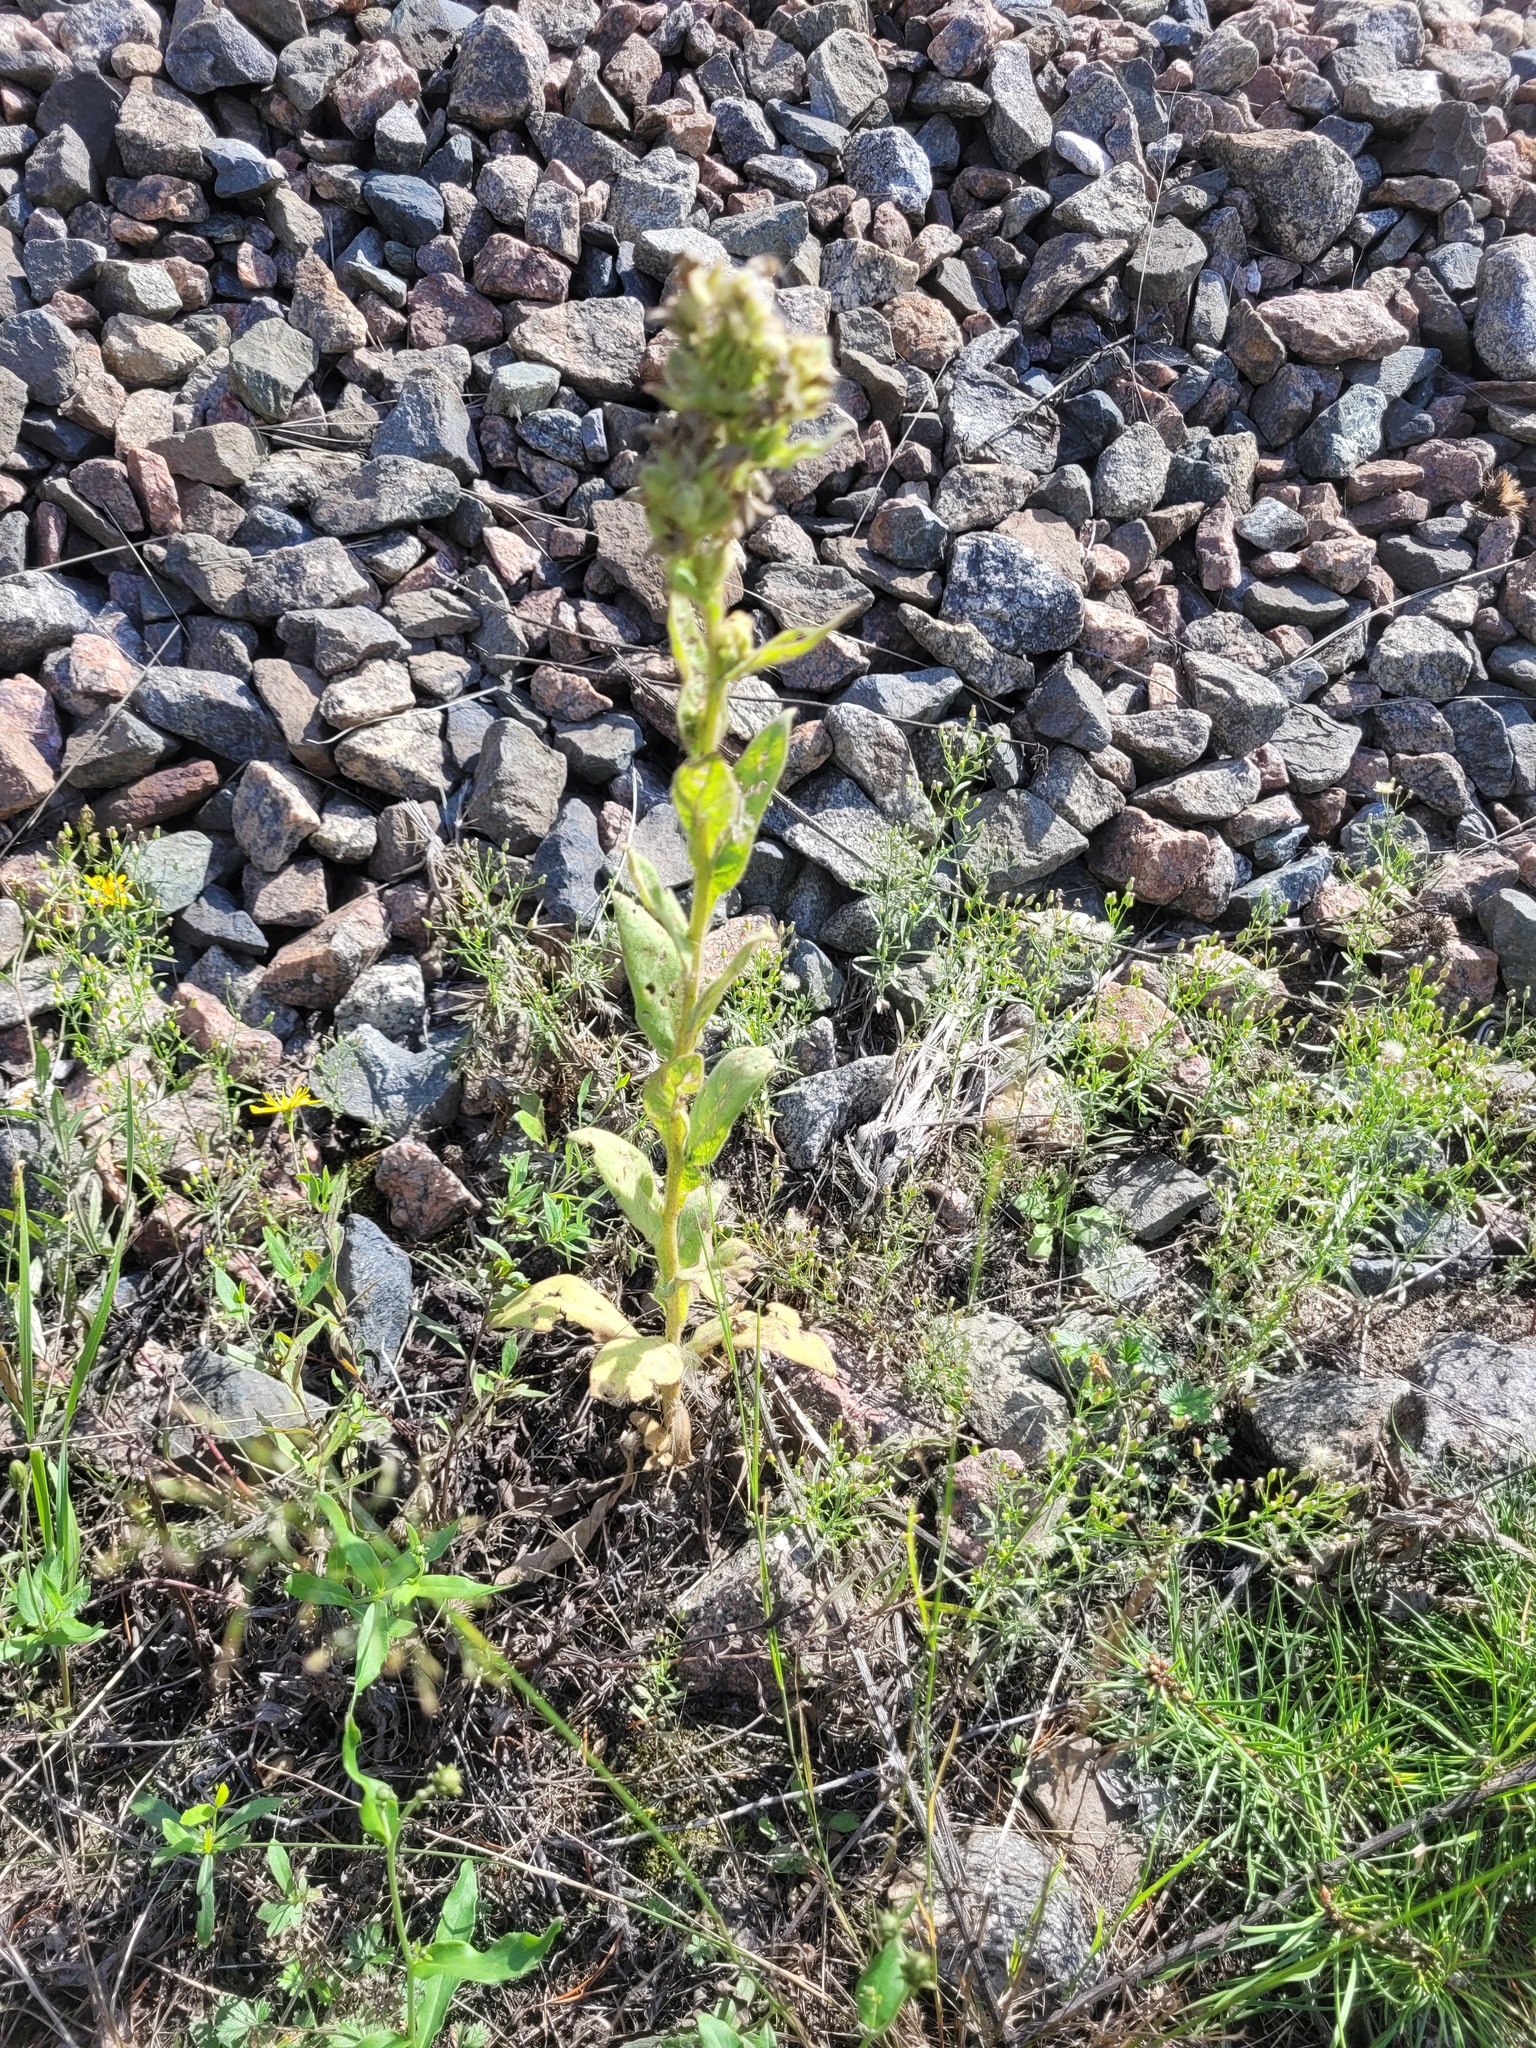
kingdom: Plantae
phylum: Tracheophyta
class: Magnoliopsida
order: Lamiales
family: Scrophulariaceae
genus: Verbascum
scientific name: Verbascum thapsus
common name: Common mullein
